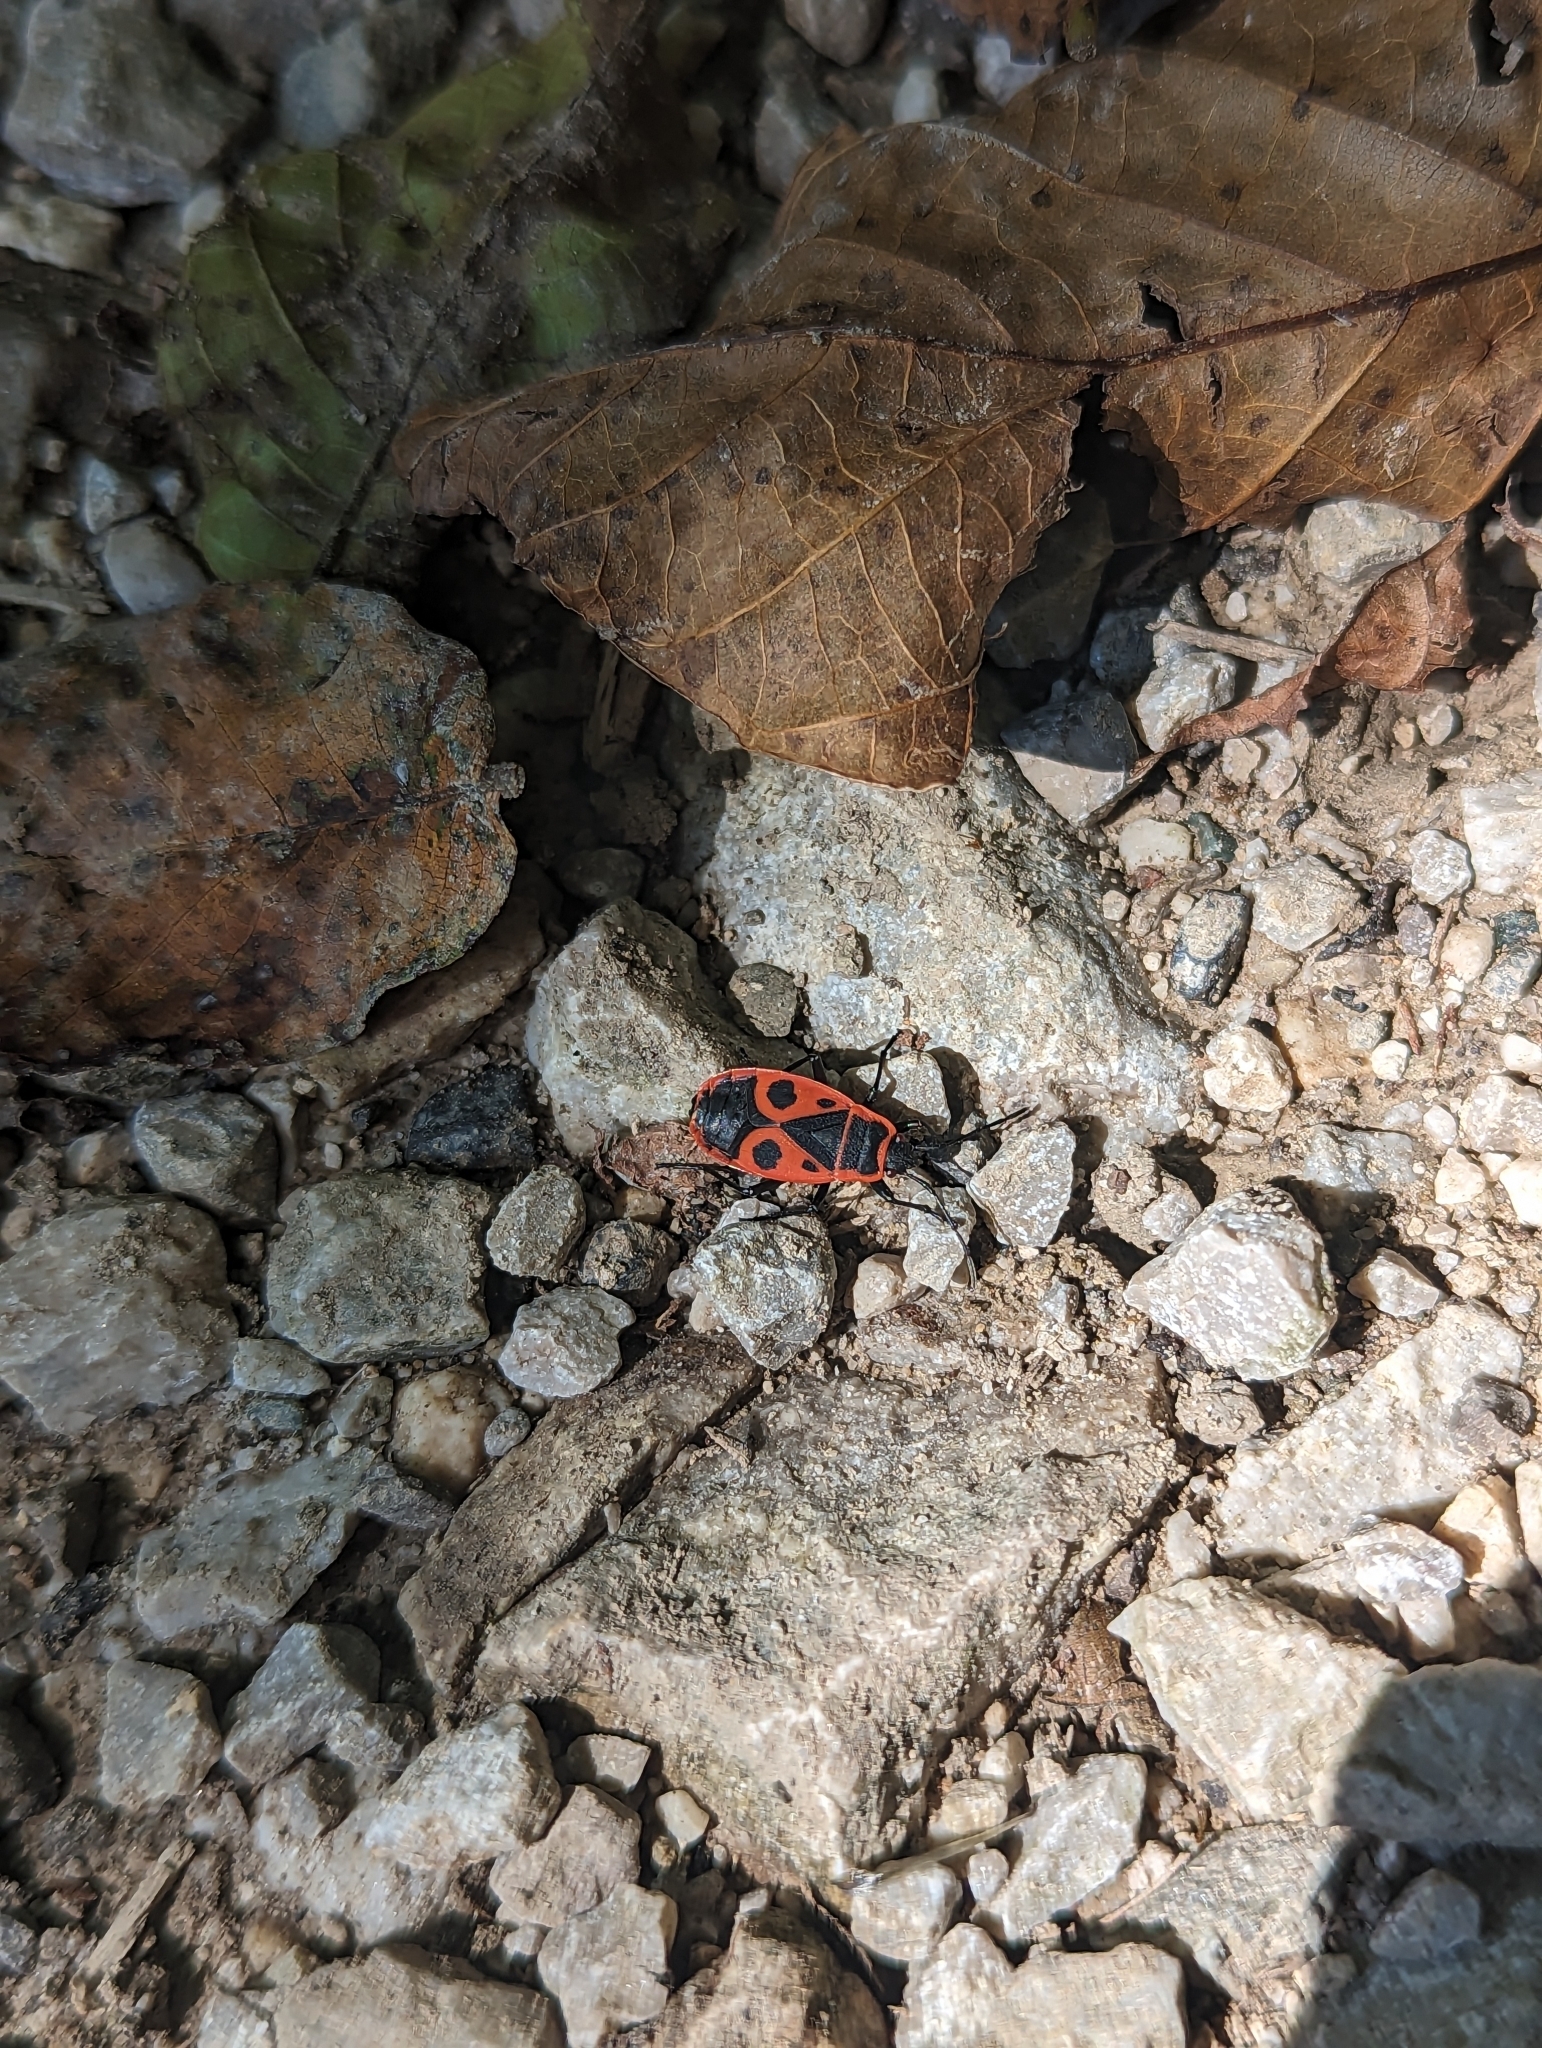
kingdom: Animalia
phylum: Arthropoda
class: Insecta
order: Hemiptera
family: Pyrrhocoridae
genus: Pyrrhocoris
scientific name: Pyrrhocoris apterus
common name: Firebug
